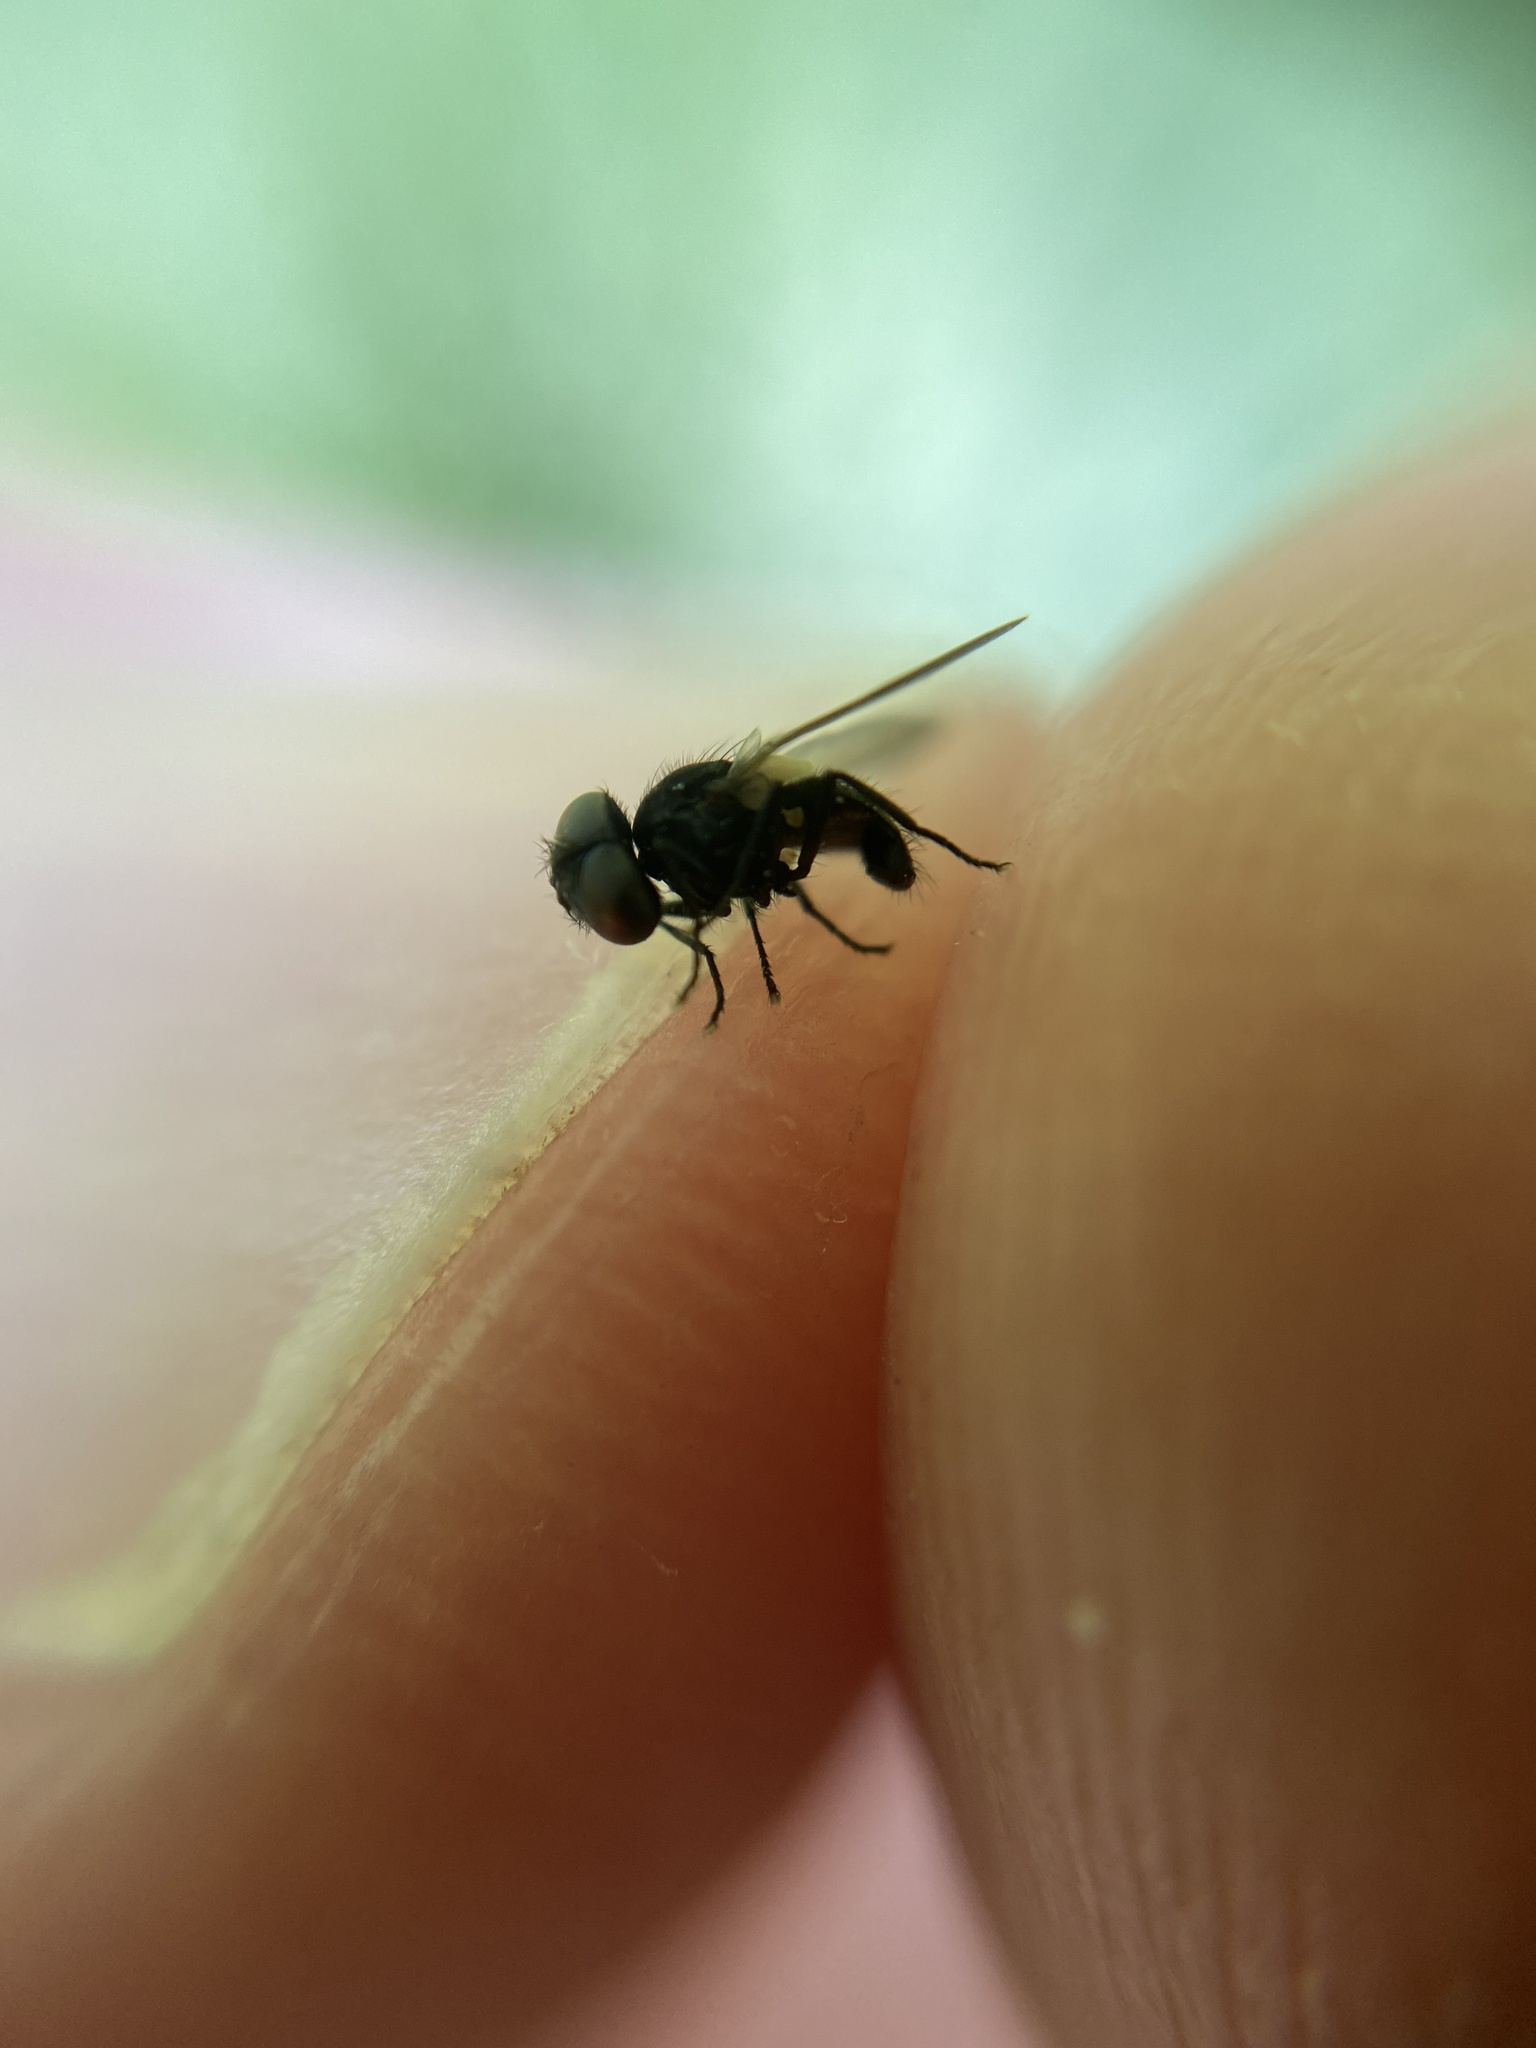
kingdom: Animalia
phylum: Arthropoda
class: Insecta
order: Diptera
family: Tachinidae
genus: Phasia
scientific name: Phasia
